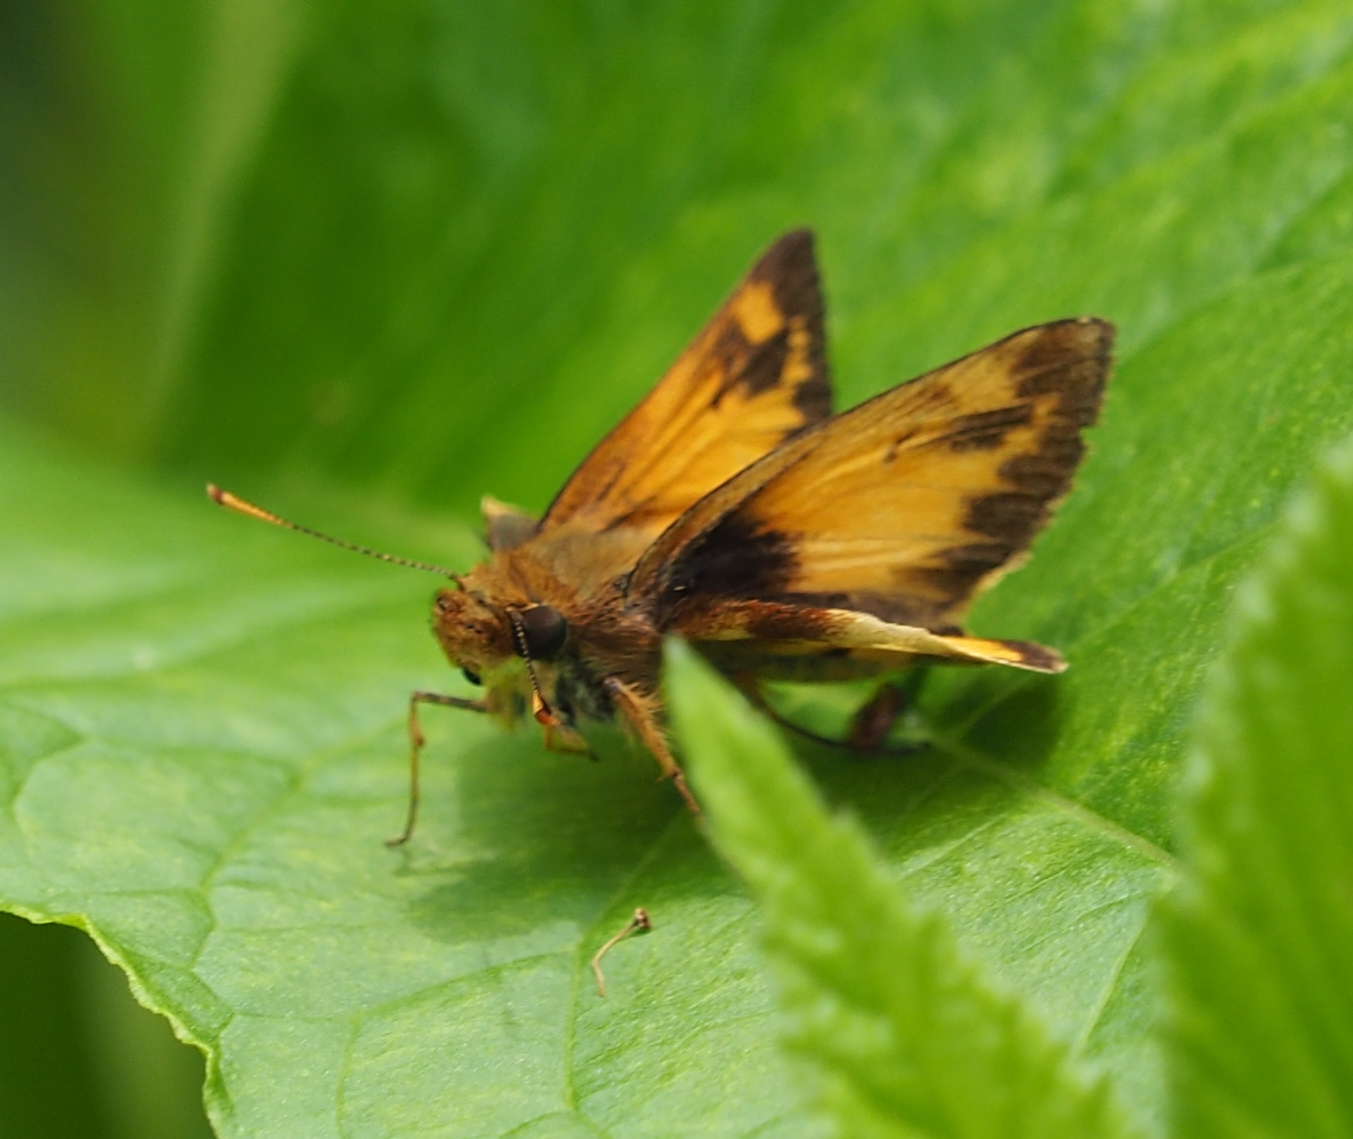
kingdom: Animalia
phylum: Arthropoda
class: Insecta
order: Lepidoptera
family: Hesperiidae
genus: Lon
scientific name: Lon zabulon
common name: Zabulon skipper
